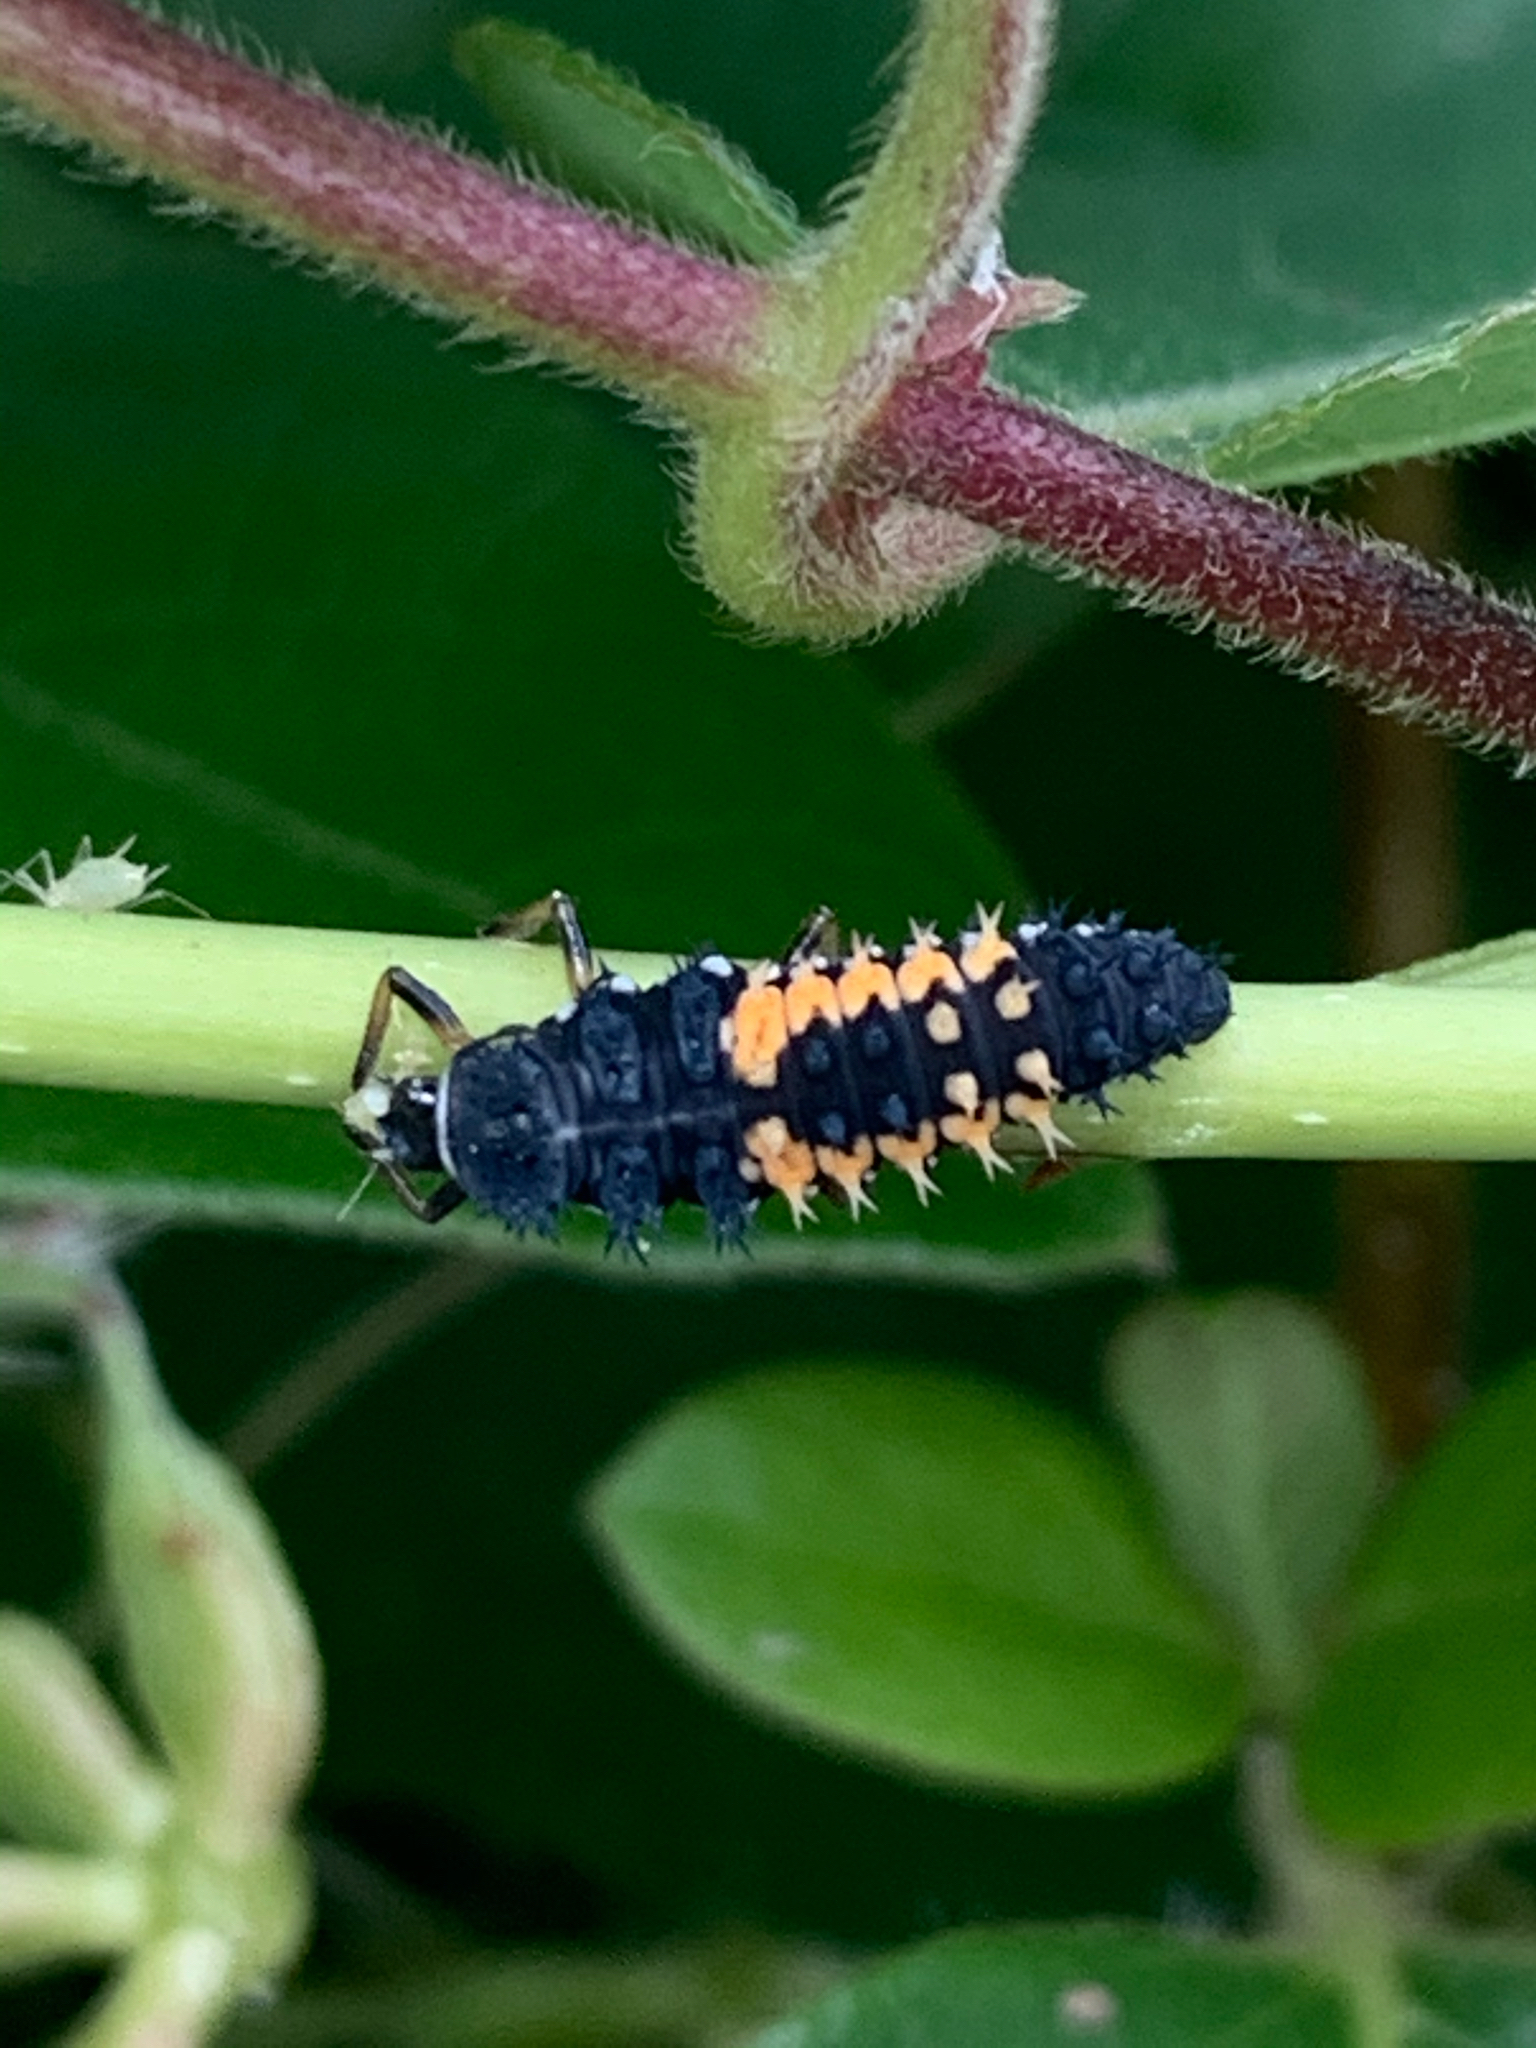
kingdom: Animalia
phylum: Arthropoda
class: Insecta
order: Coleoptera
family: Coccinellidae
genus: Harmonia
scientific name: Harmonia axyridis
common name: Harlequin ladybird
